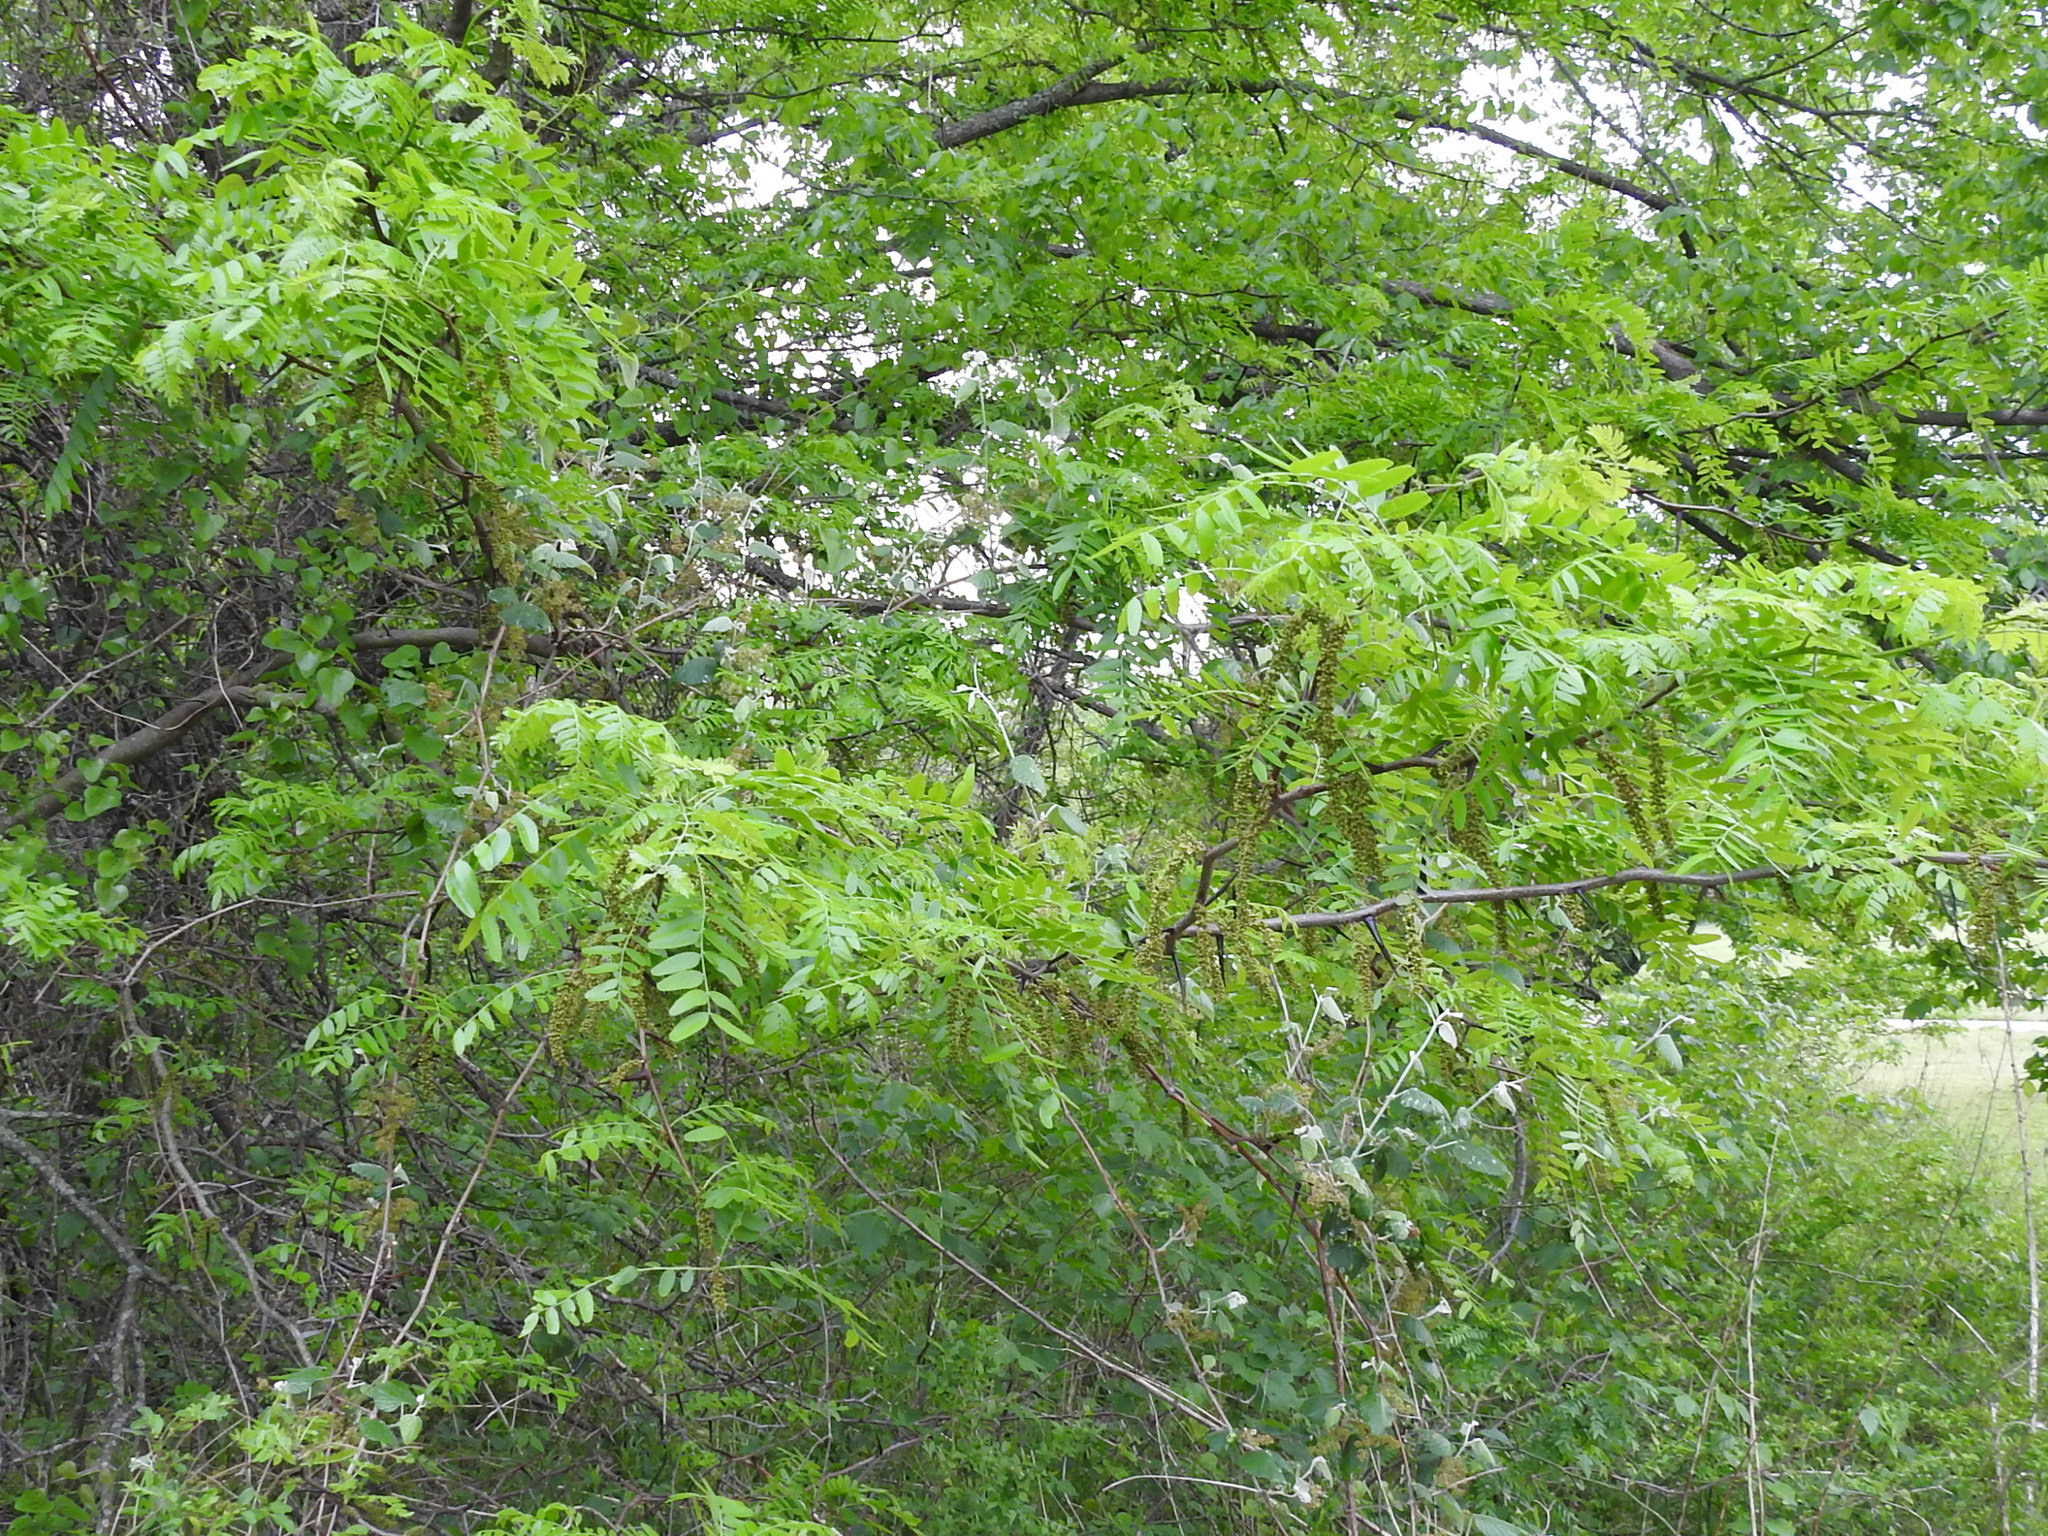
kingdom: Plantae
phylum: Tracheophyta
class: Magnoliopsida
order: Fabales
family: Fabaceae
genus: Gleditsia
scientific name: Gleditsia triacanthos
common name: Common honeylocust
